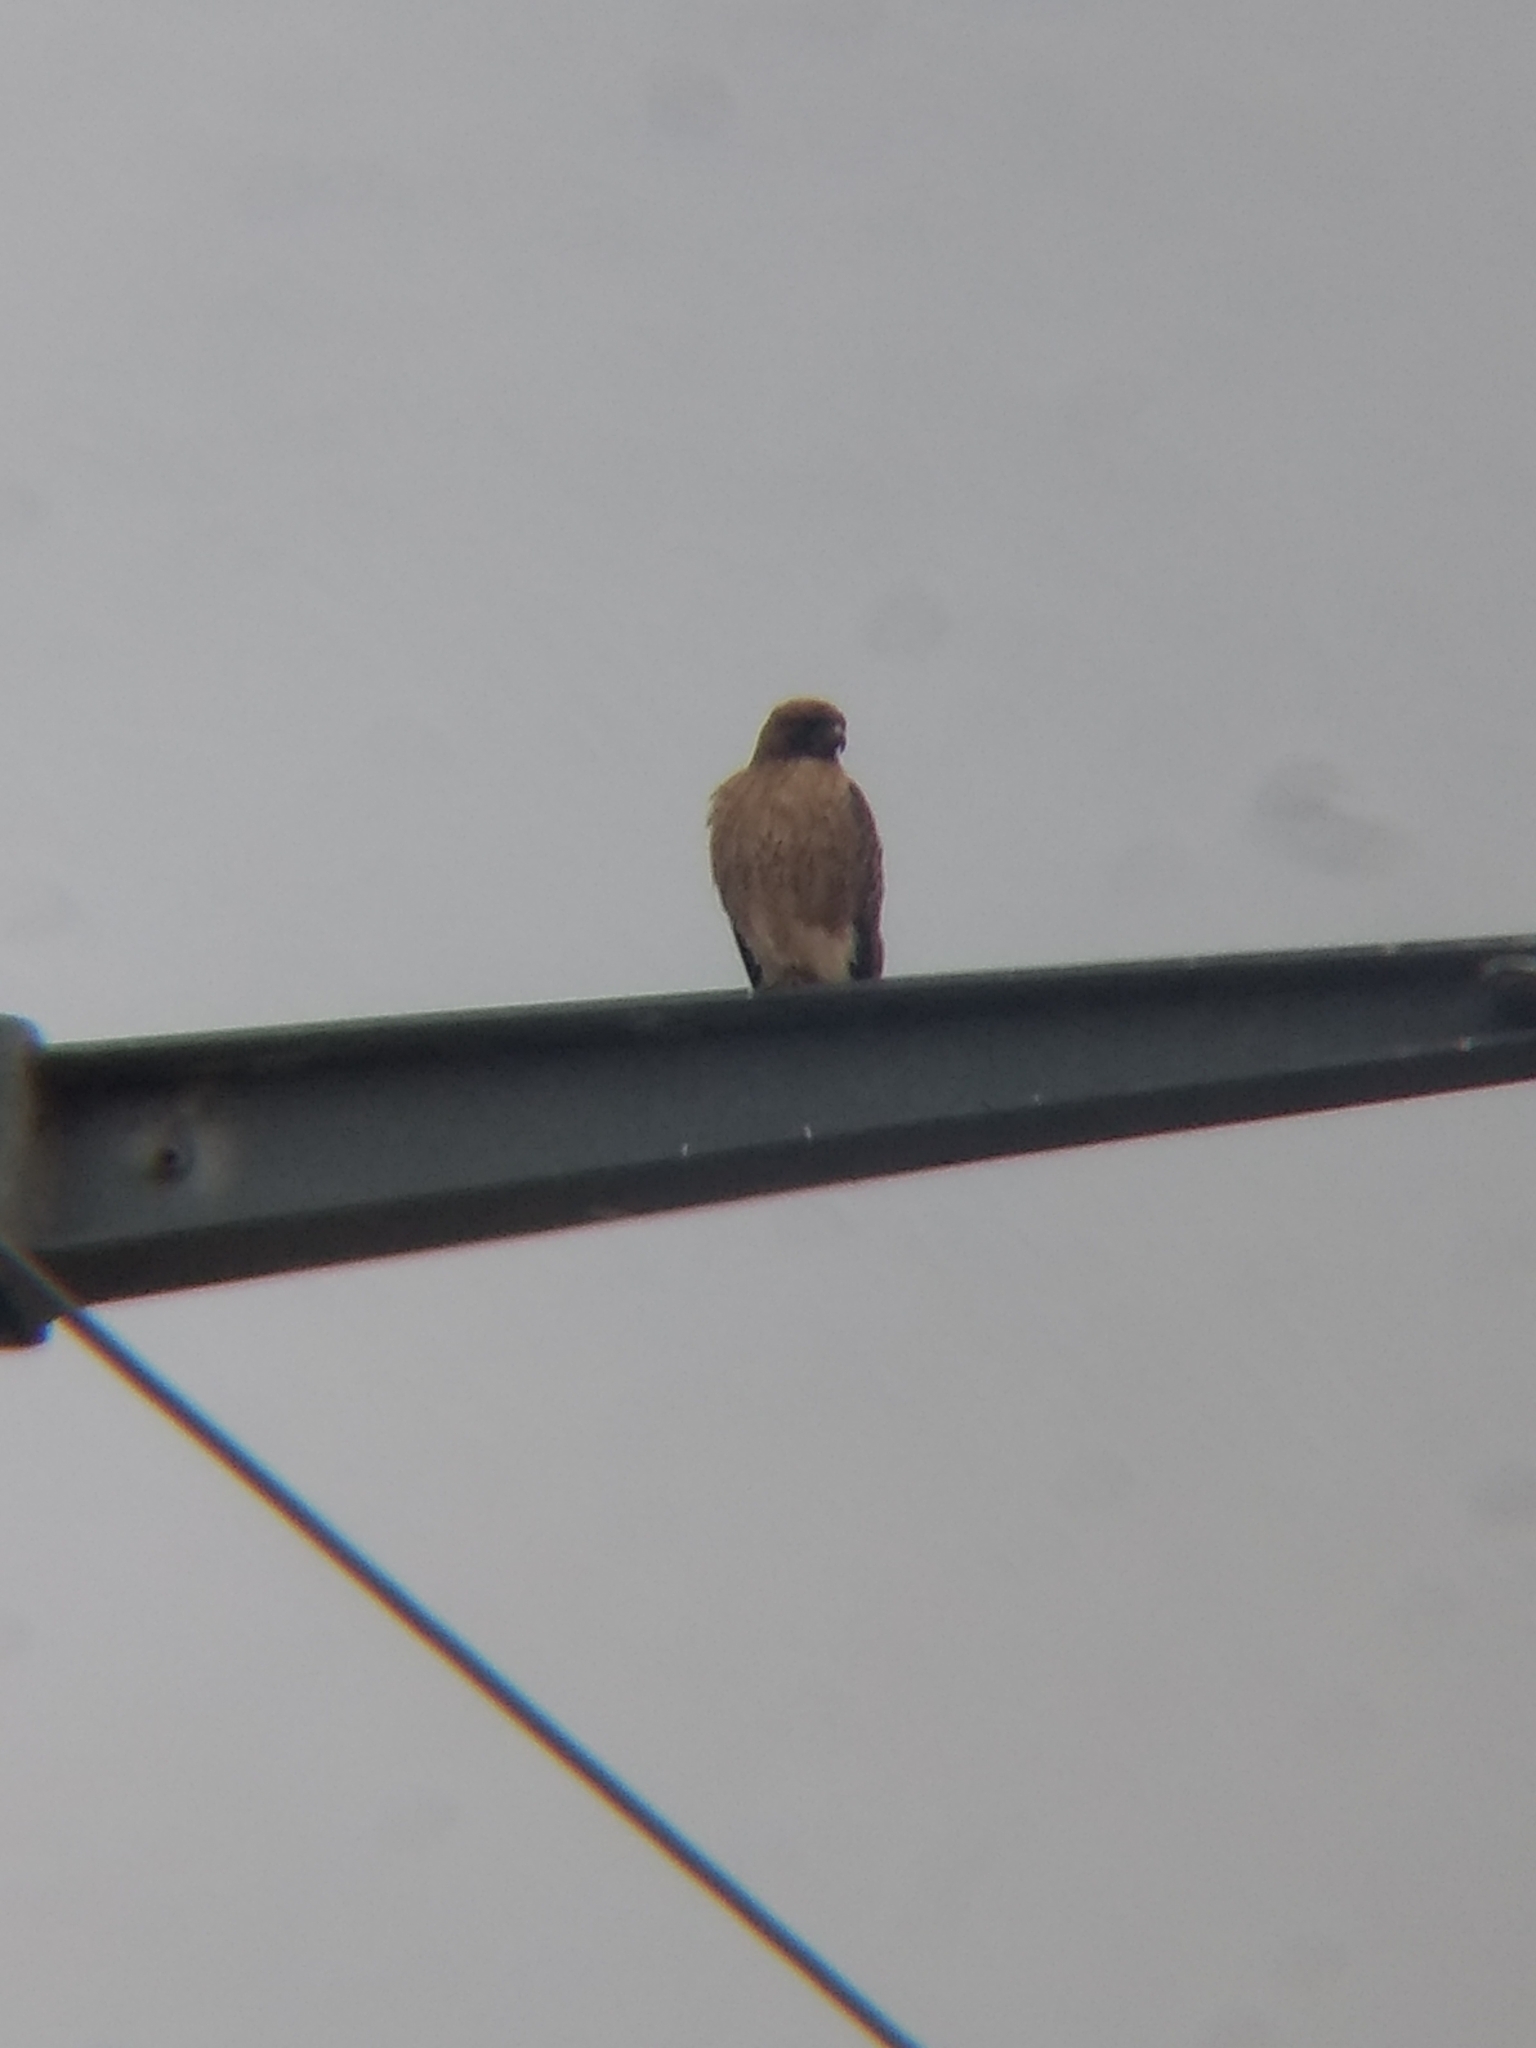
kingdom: Animalia
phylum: Chordata
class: Aves
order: Accipitriformes
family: Accipitridae
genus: Buteo
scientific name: Buteo jamaicensis
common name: Red-tailed hawk
